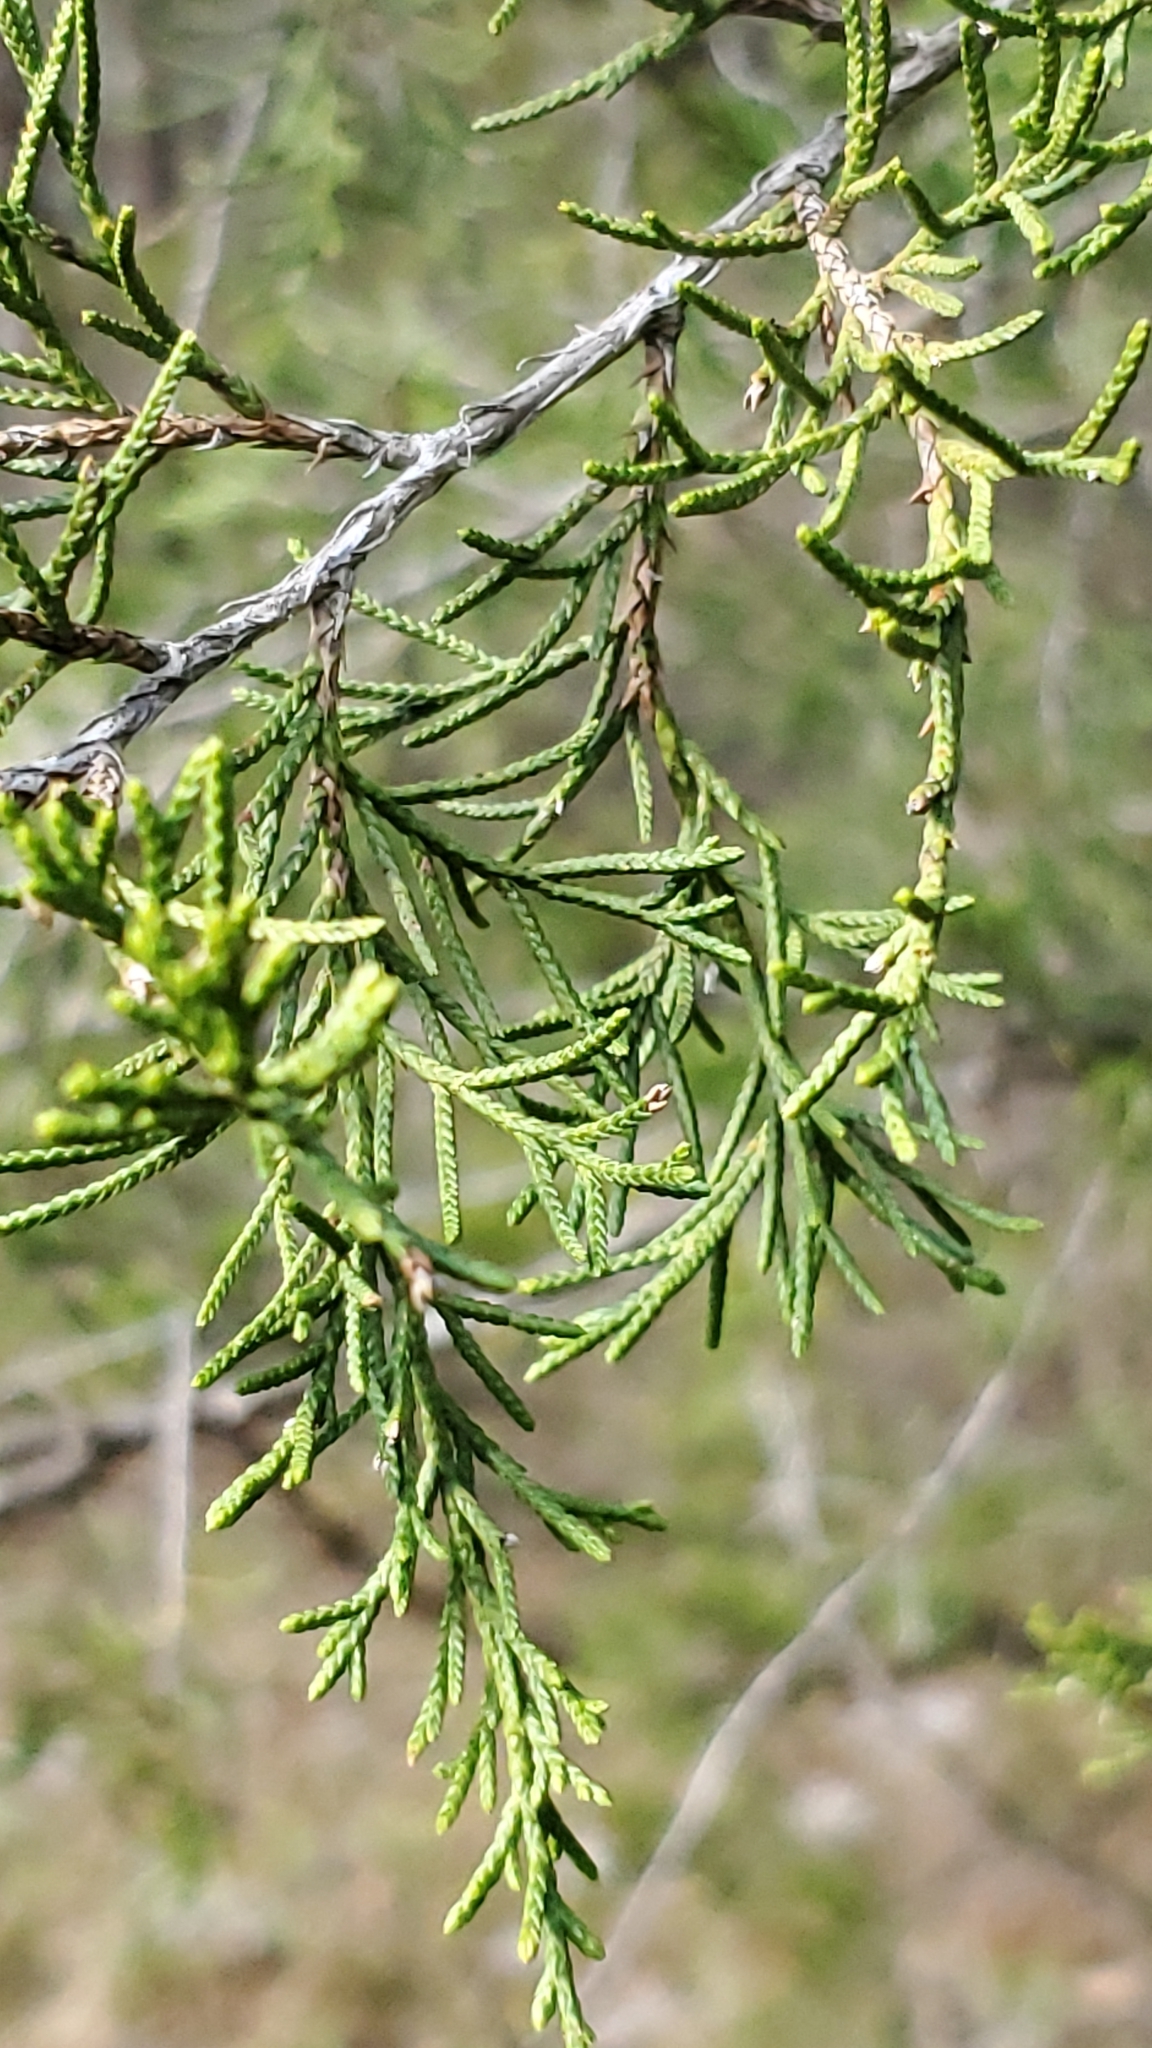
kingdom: Plantae
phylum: Tracheophyta
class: Pinopsida
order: Pinales
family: Cupressaceae
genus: Juniperus
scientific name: Juniperus virginiana
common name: Red juniper
